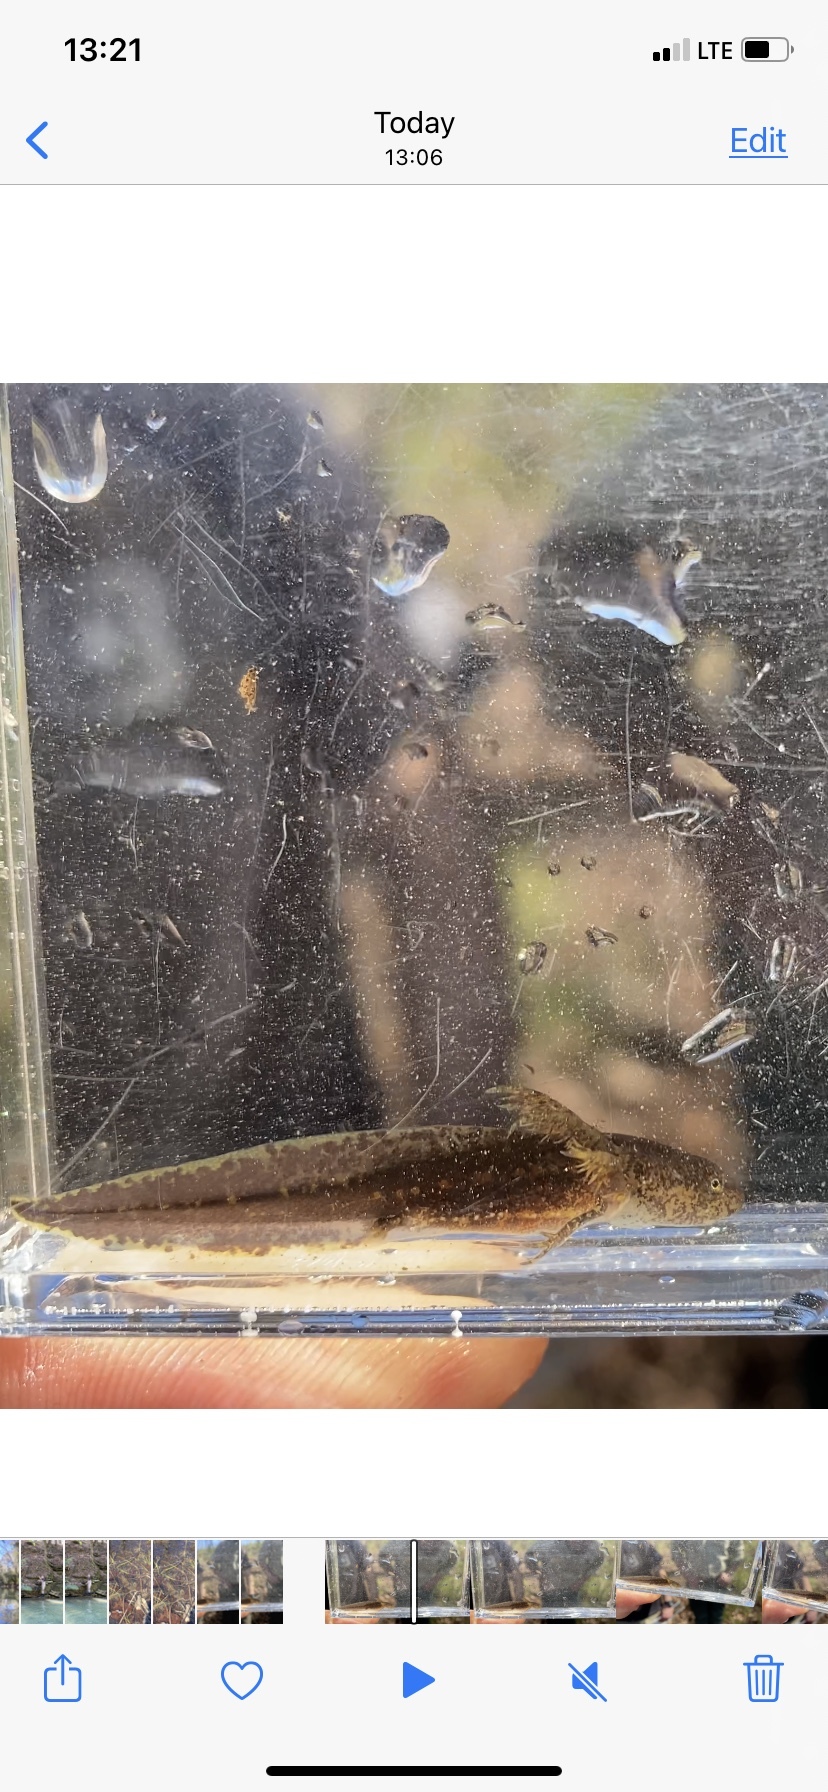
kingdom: Animalia
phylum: Chordata
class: Amphibia
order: Caudata
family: Ambystomatidae
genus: Ambystoma
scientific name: Ambystoma opacum
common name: Marbled salamander
